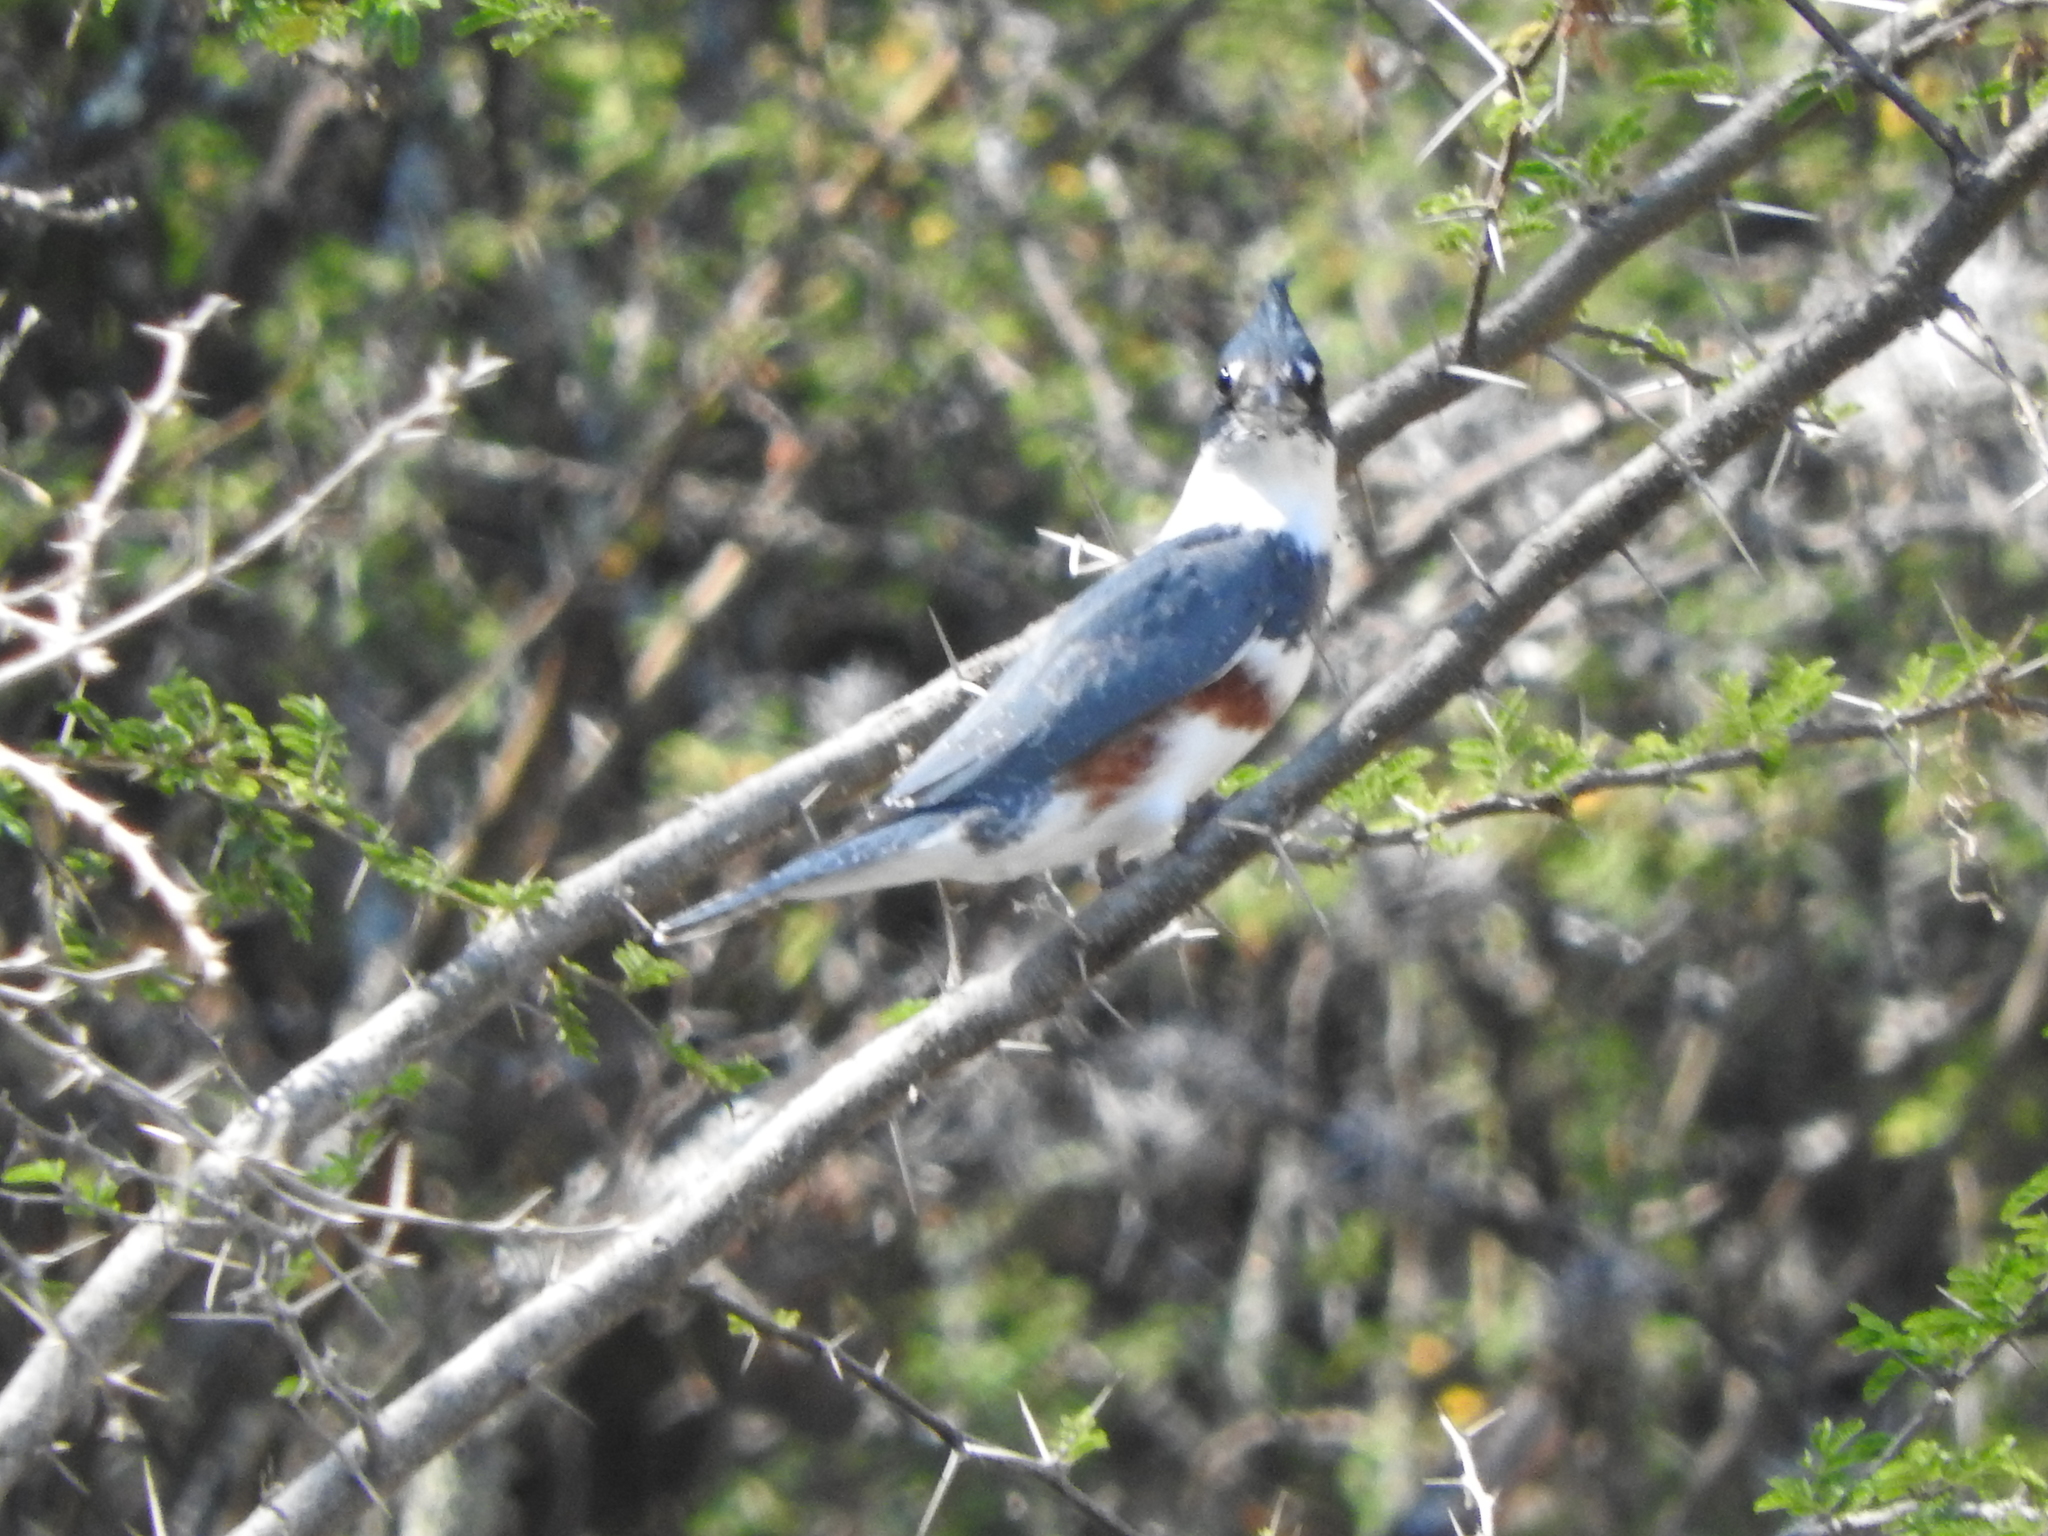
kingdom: Animalia
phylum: Chordata
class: Aves
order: Coraciiformes
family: Alcedinidae
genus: Megaceryle
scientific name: Megaceryle alcyon
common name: Belted kingfisher
